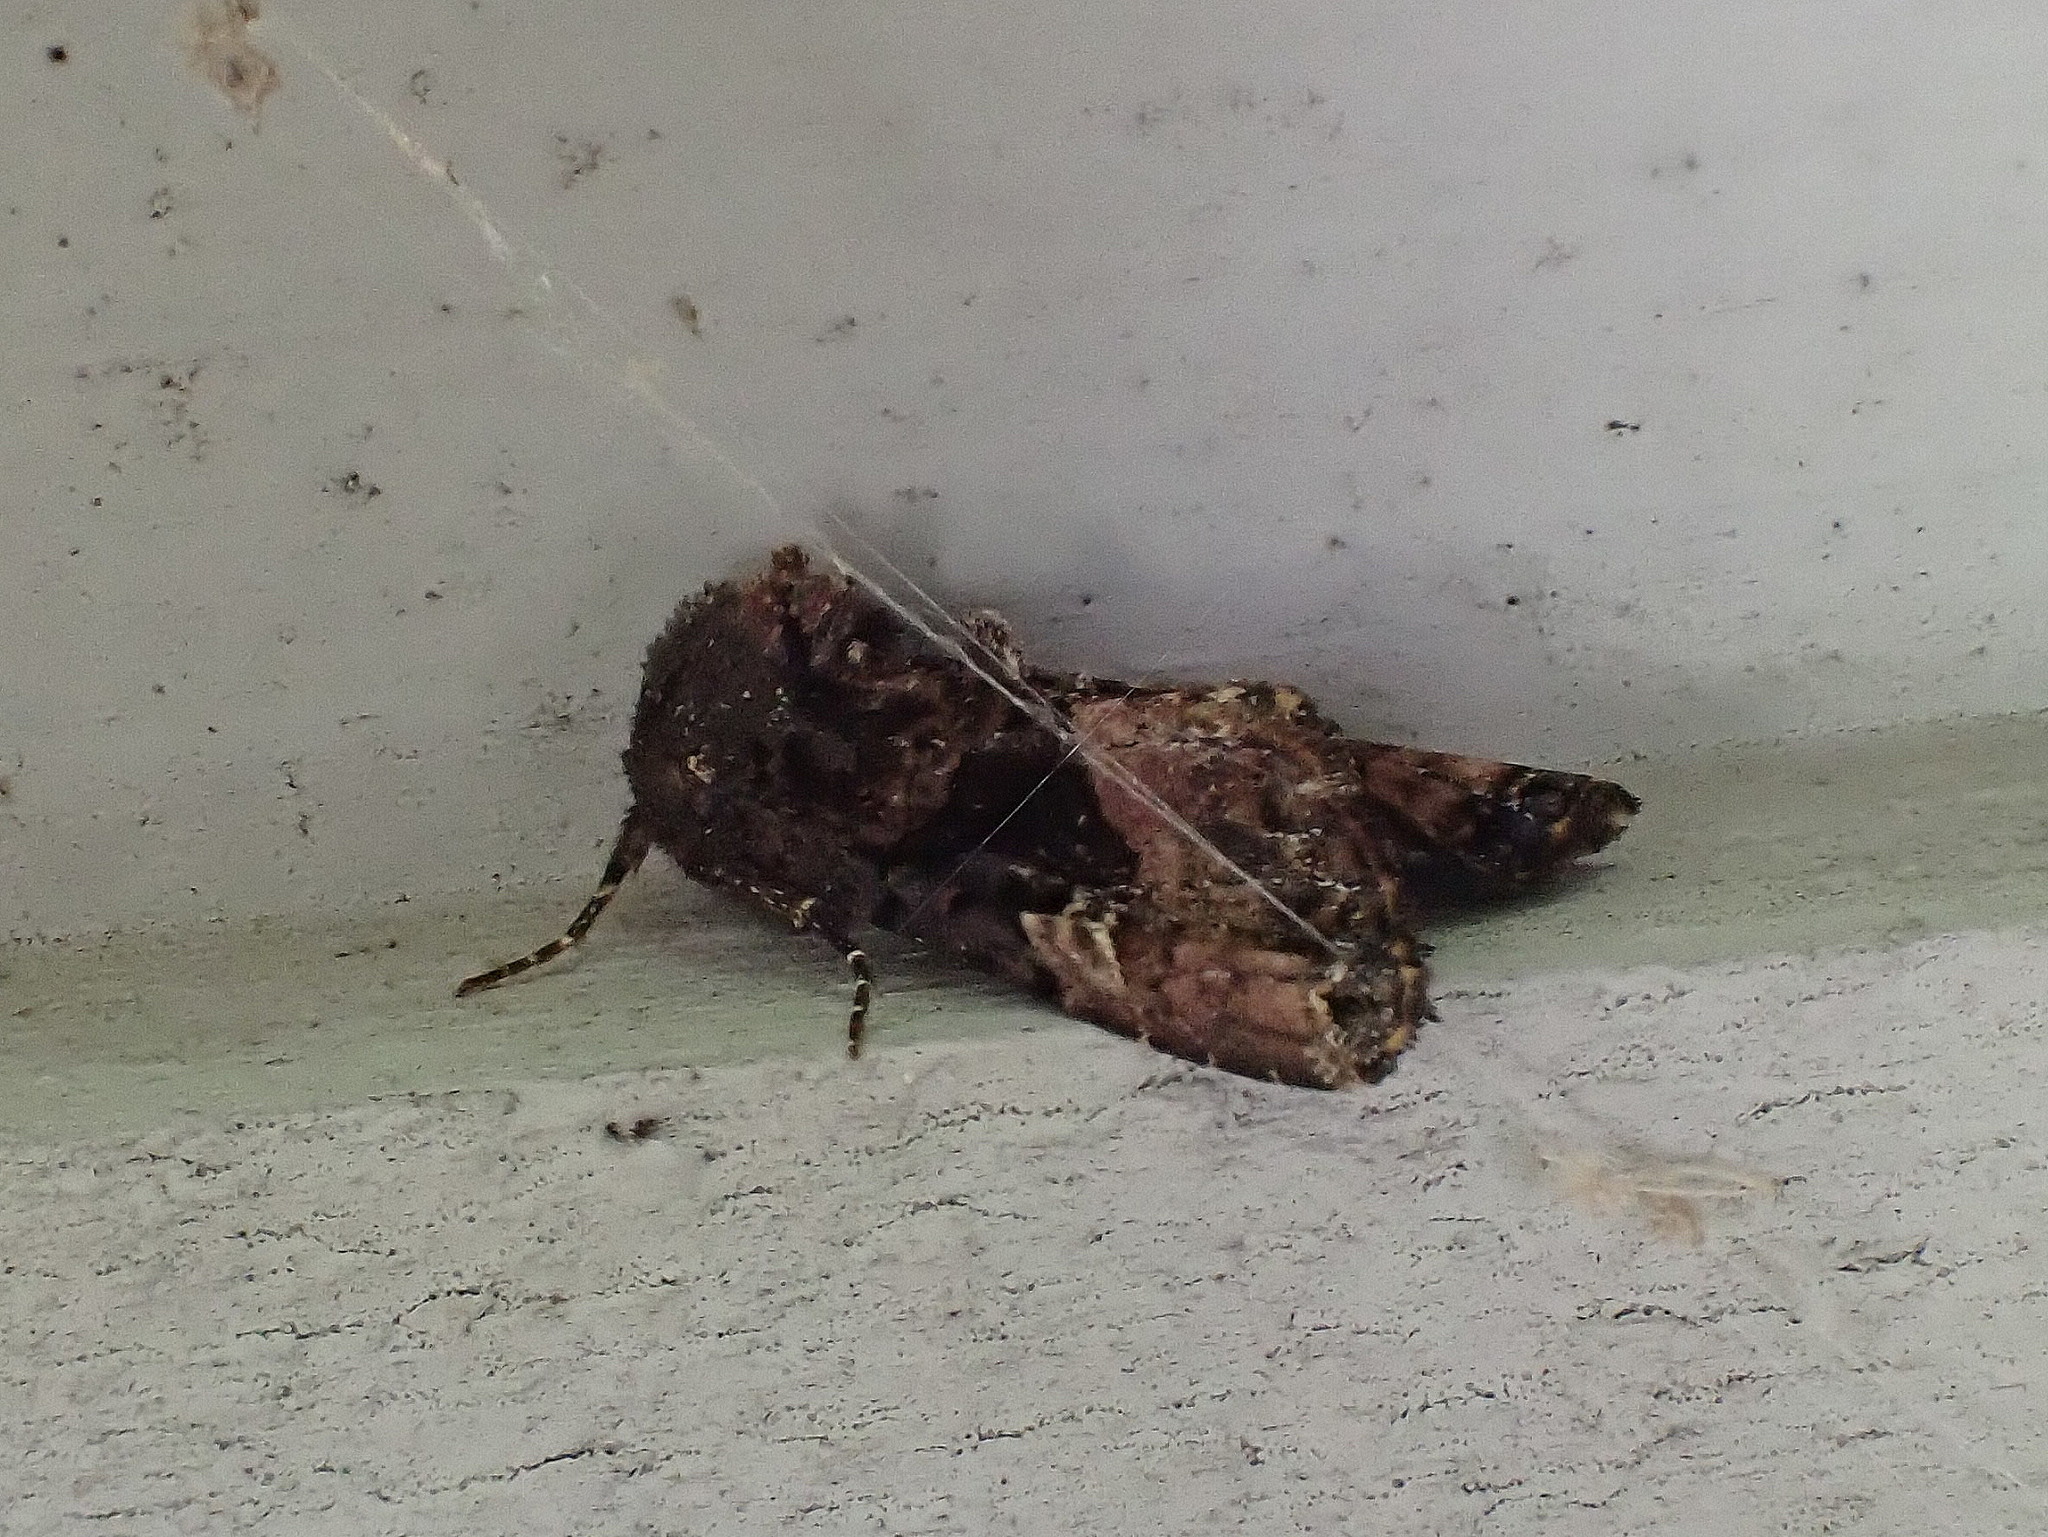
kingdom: Animalia
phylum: Arthropoda
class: Insecta
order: Lepidoptera
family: Noctuidae
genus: Euplexia
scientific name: Euplexia benesimilis
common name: American angle shades
